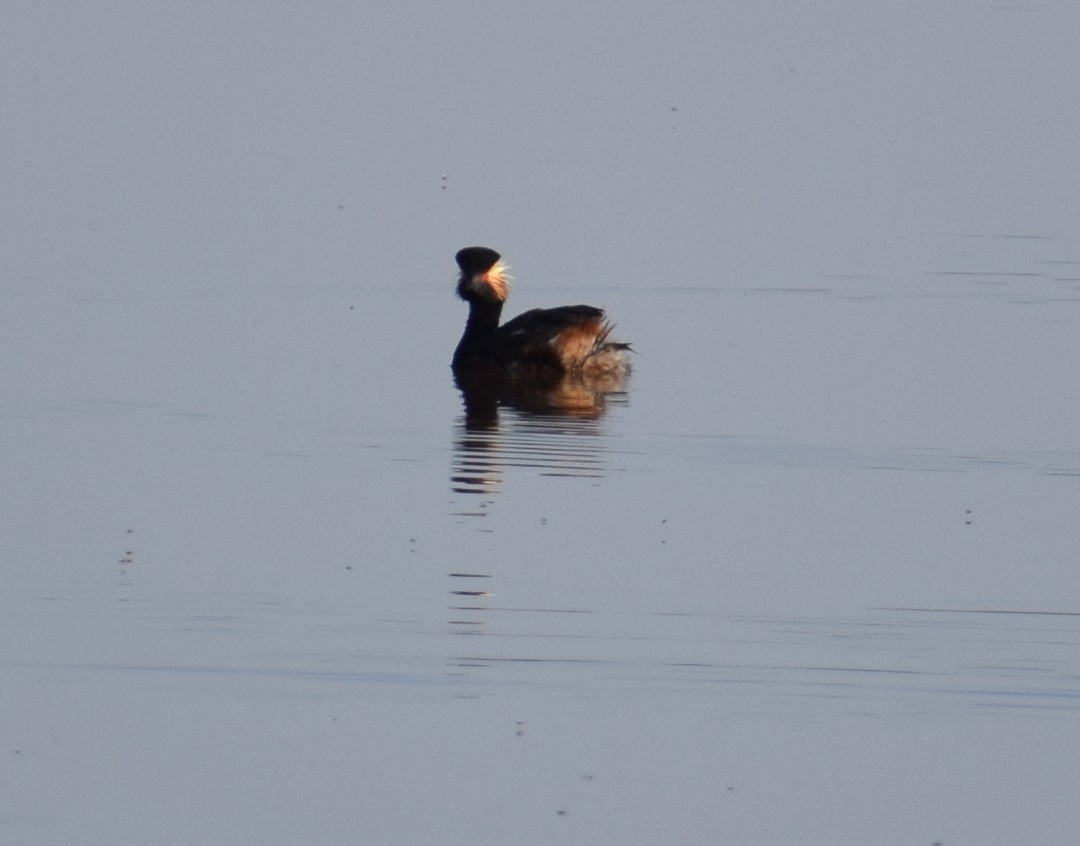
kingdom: Animalia
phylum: Chordata
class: Aves
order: Podicipediformes
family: Podicipedidae
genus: Podiceps
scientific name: Podiceps nigricollis
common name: Black-necked grebe
